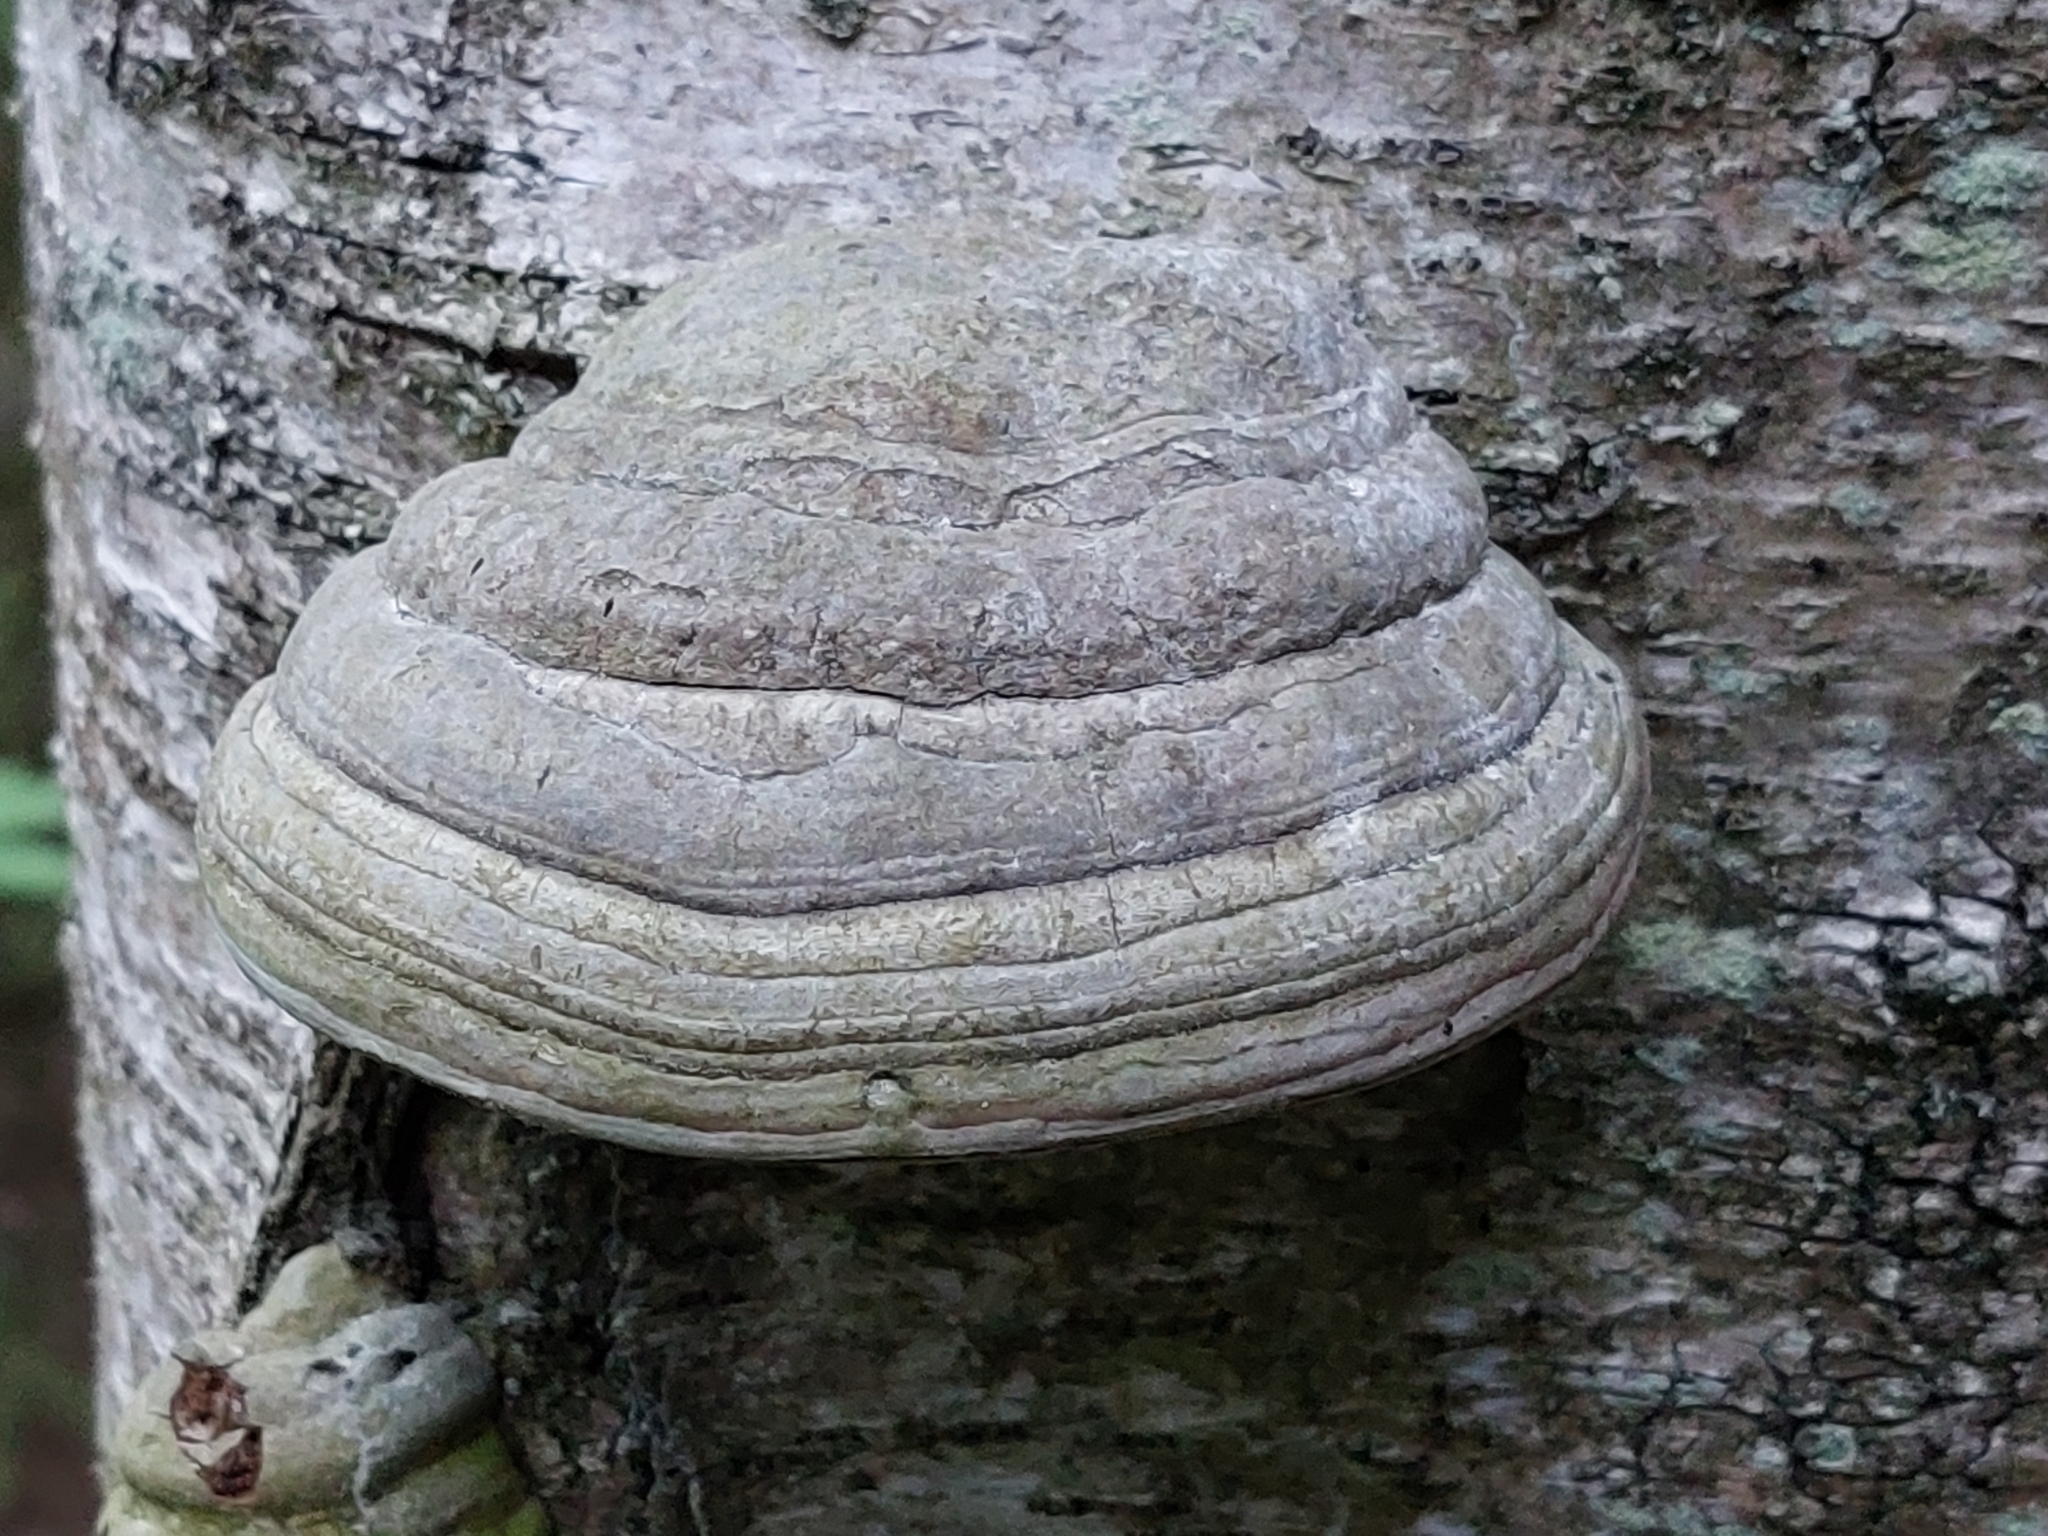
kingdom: Fungi
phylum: Basidiomycota
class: Agaricomycetes
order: Polyporales
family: Polyporaceae
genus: Fomes
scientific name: Fomes fomentarius
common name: Hoof fungus
